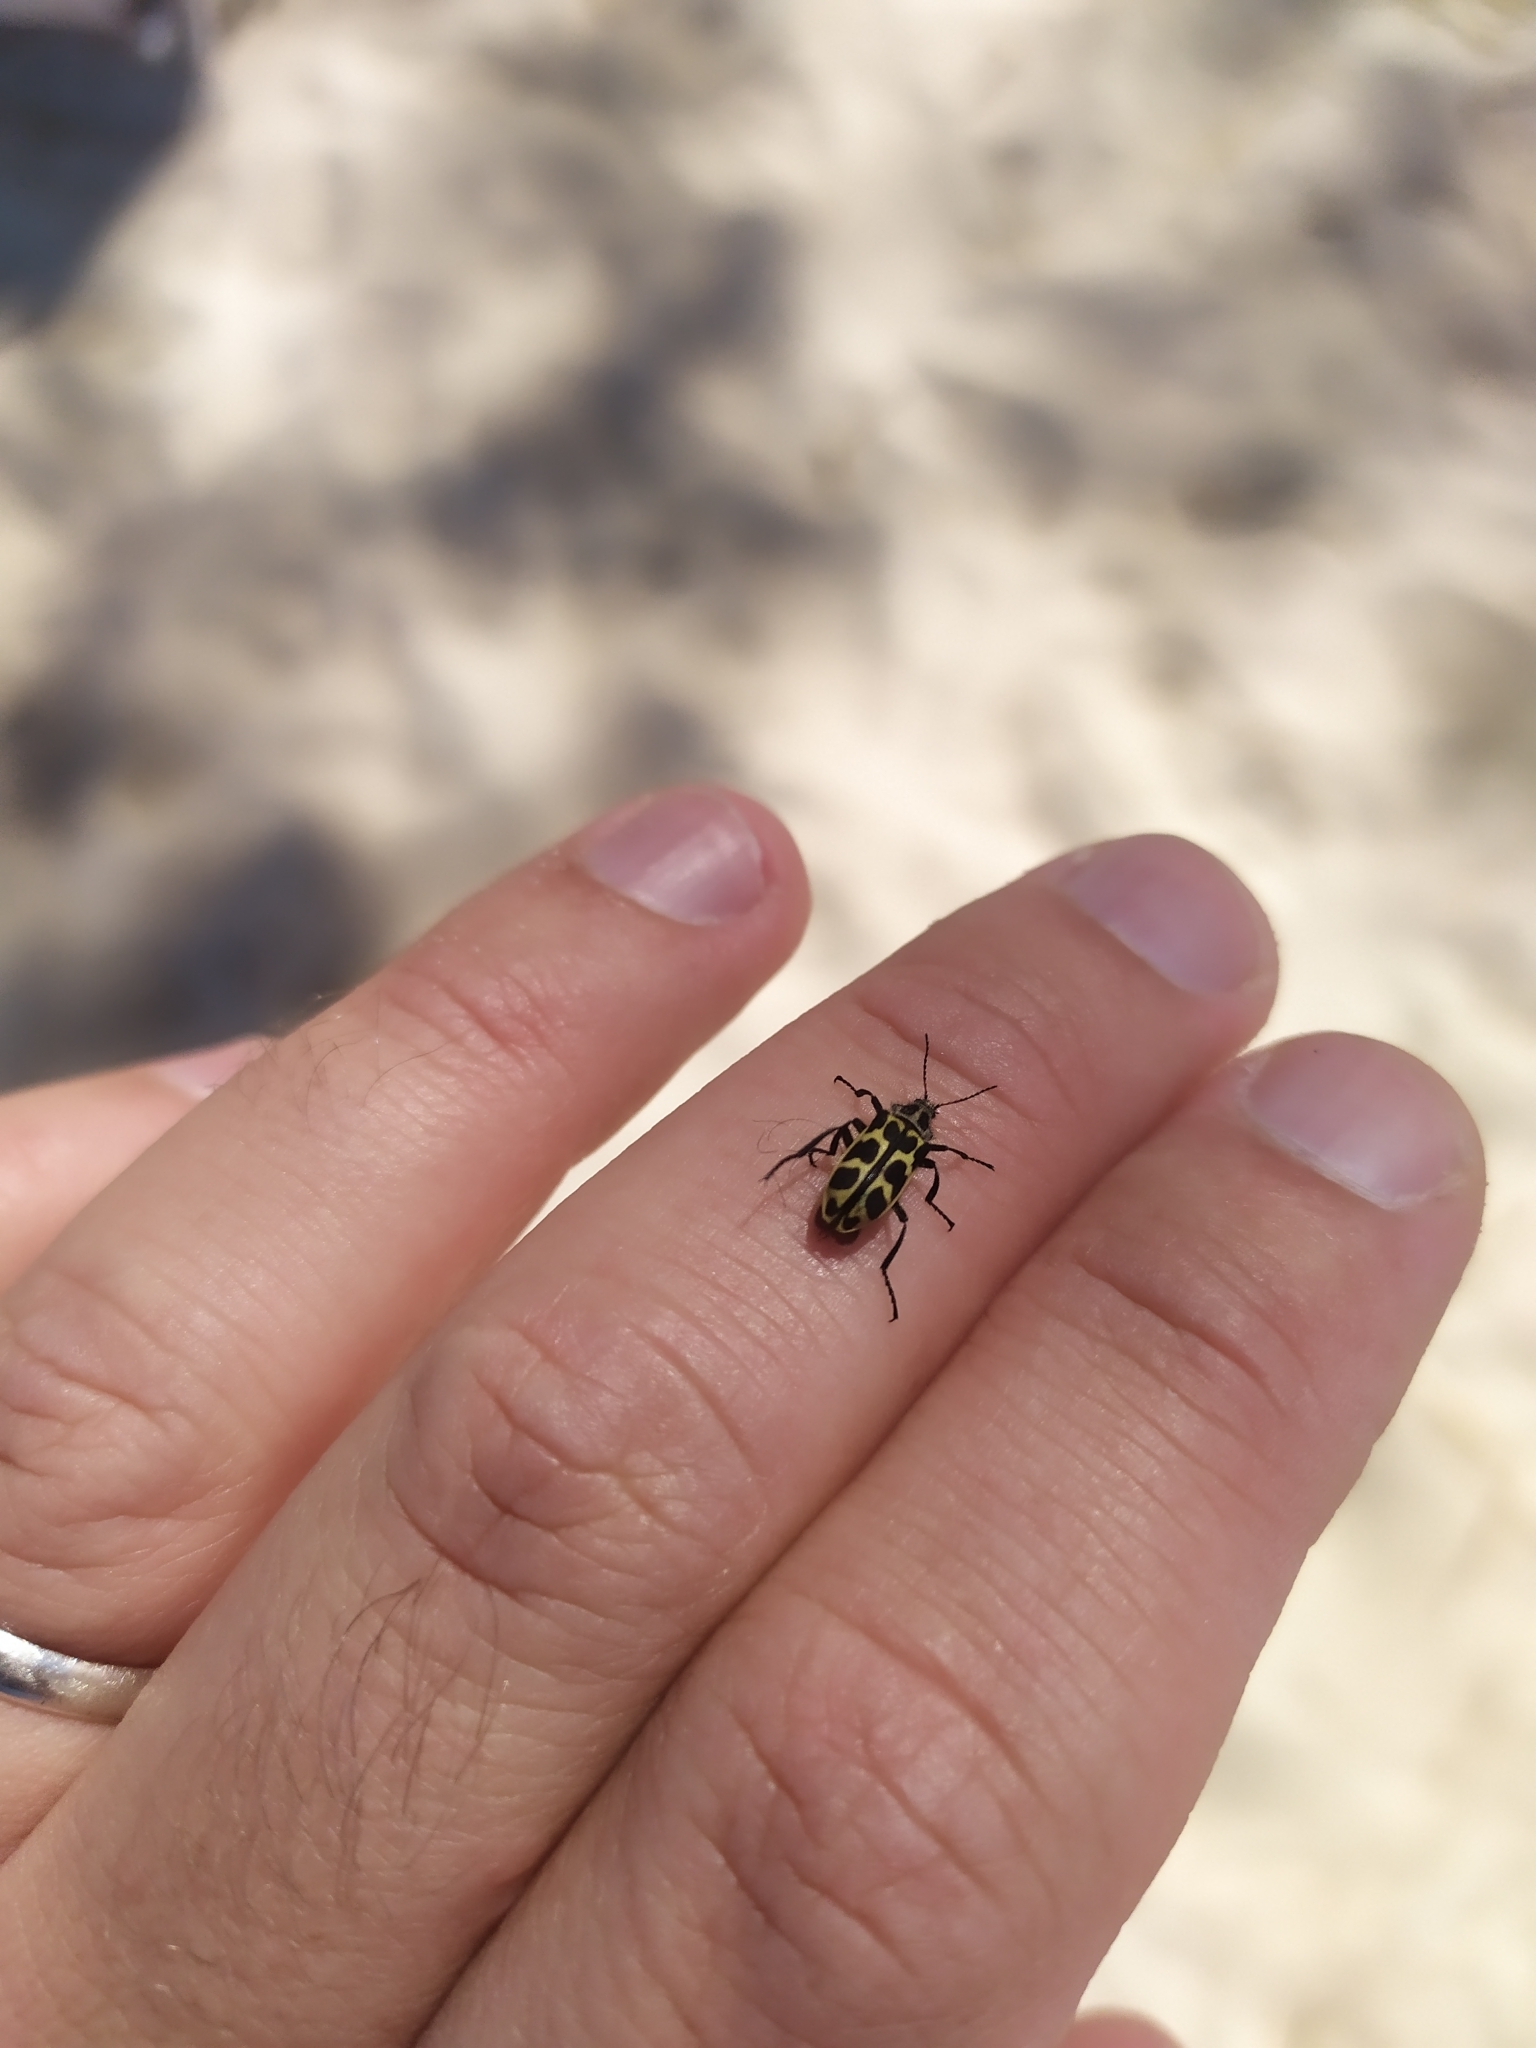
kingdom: Animalia
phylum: Arthropoda
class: Insecta
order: Coleoptera
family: Melyridae
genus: Astylus
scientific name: Astylus atromaculatus
